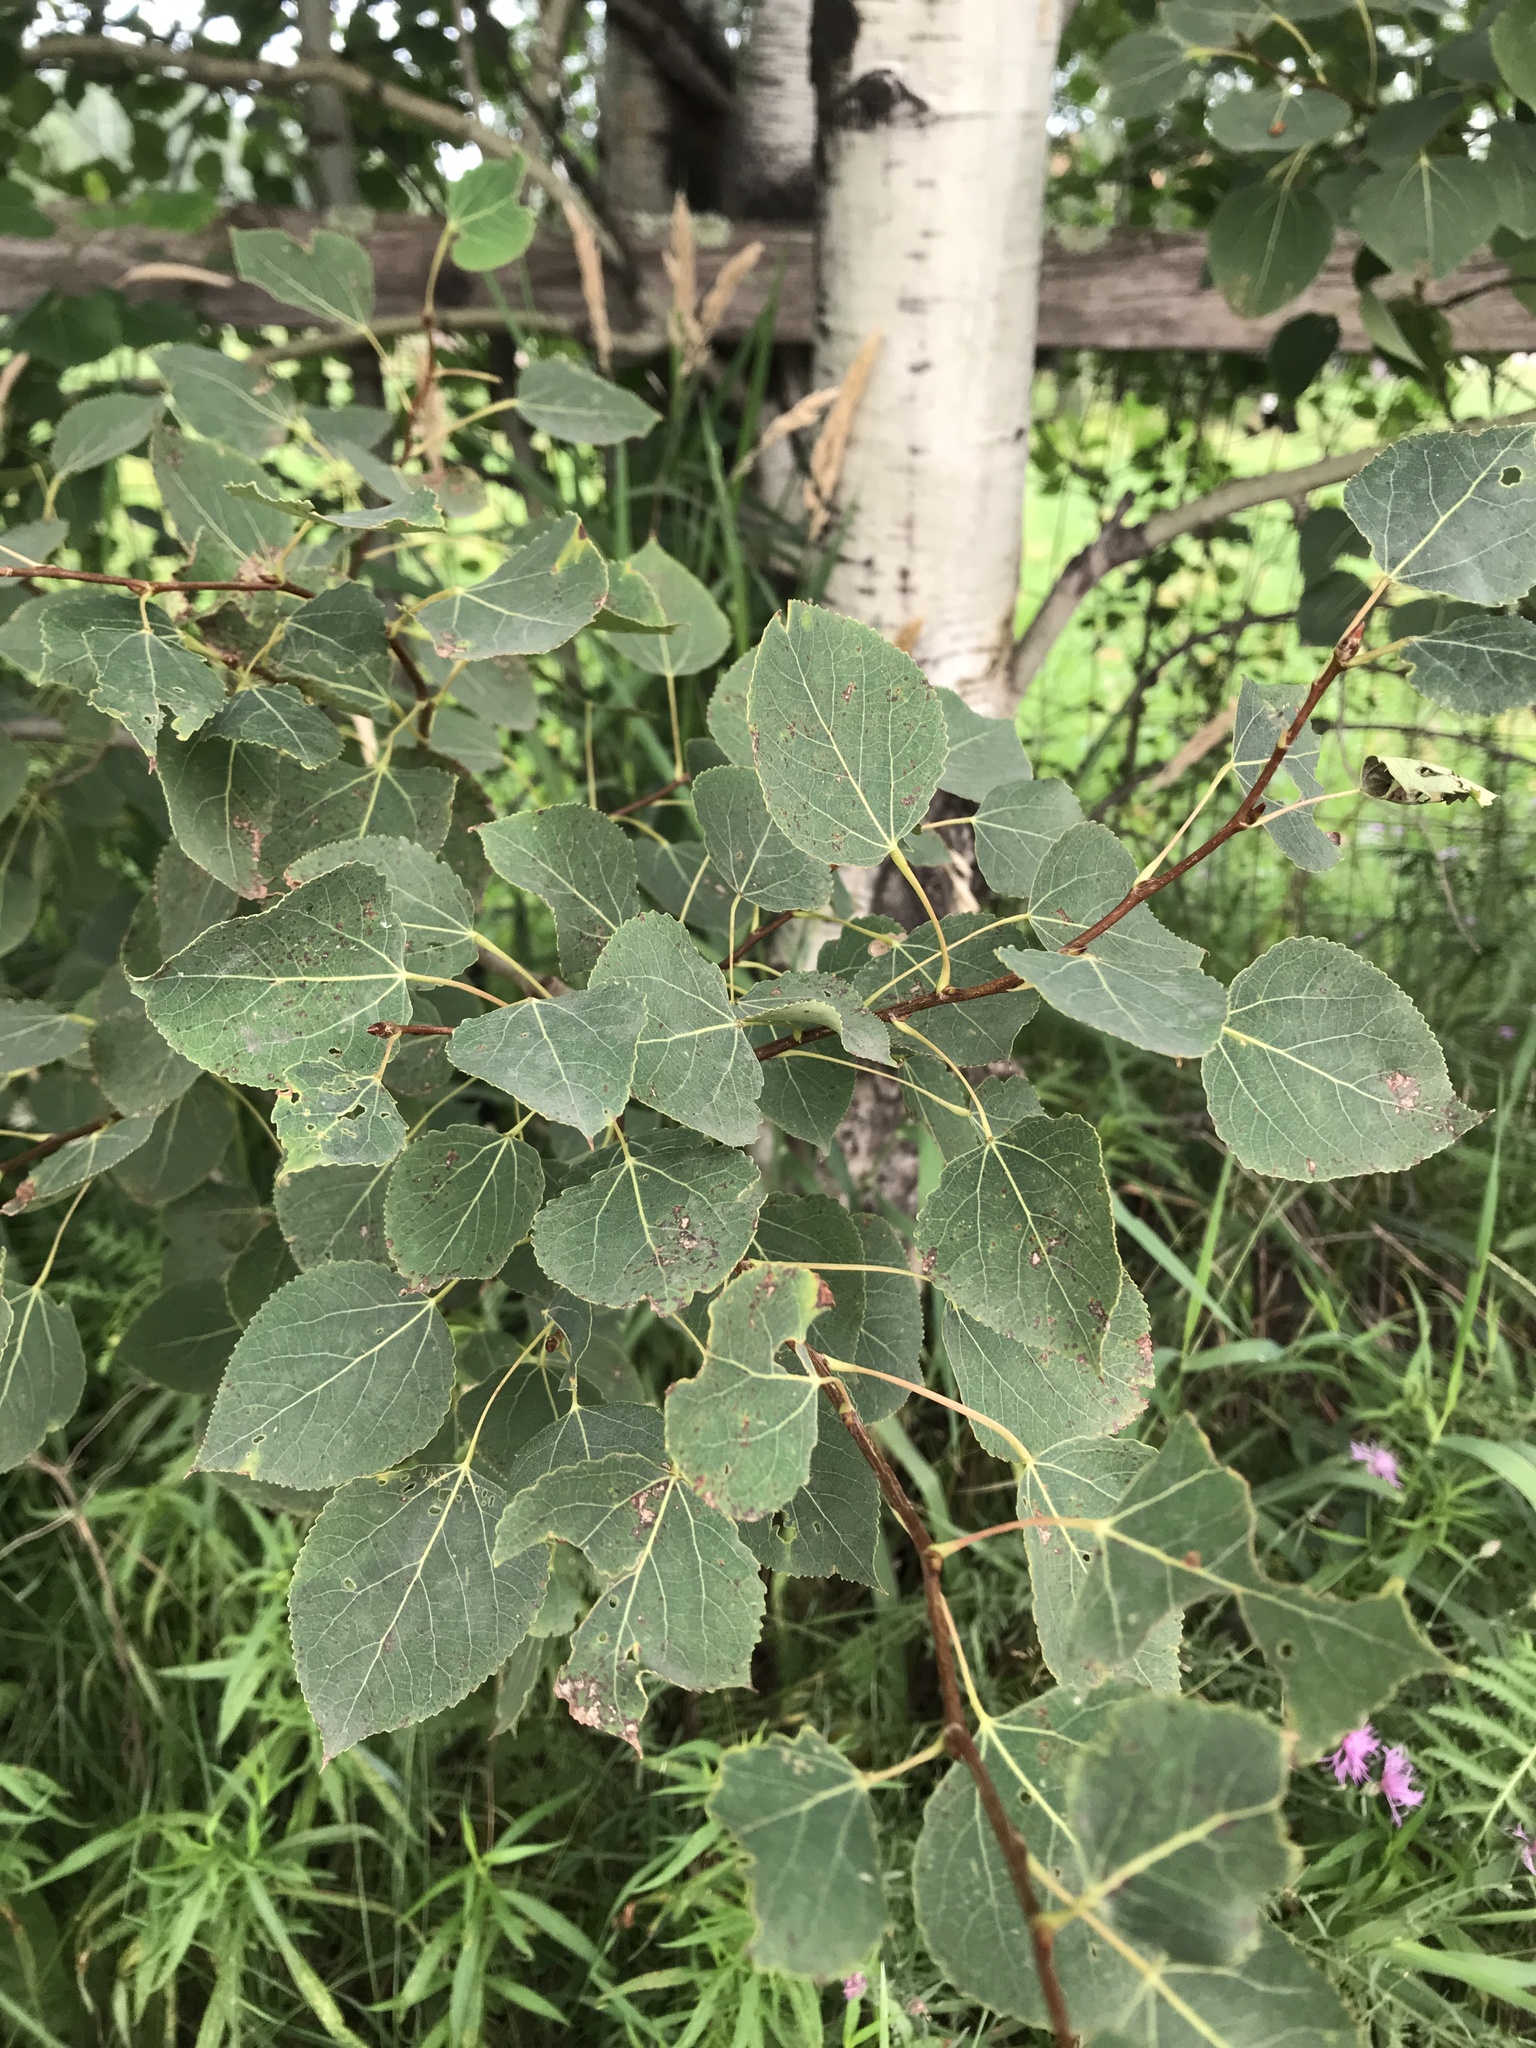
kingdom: Plantae
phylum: Tracheophyta
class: Magnoliopsida
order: Malpighiales
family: Salicaceae
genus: Populus
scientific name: Populus tremuloides
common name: Quaking aspen
